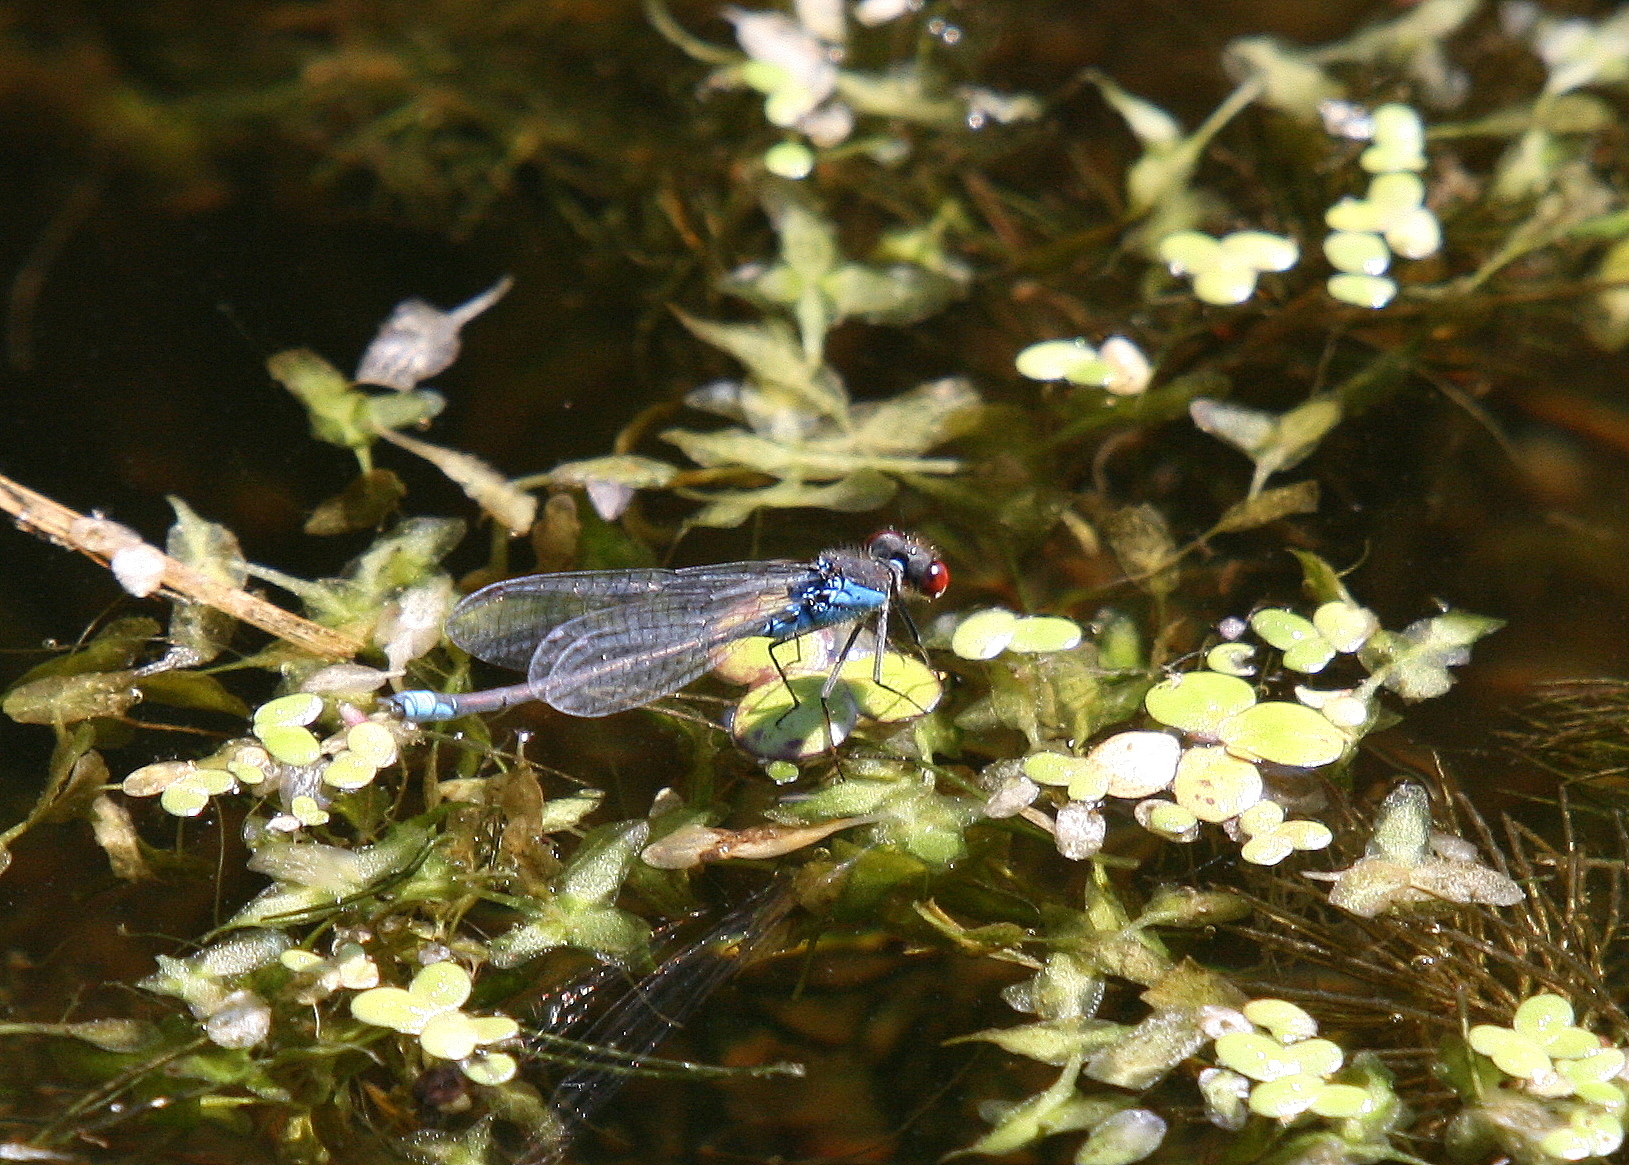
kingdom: Animalia
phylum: Arthropoda
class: Insecta
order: Odonata
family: Coenagrionidae
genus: Erythromma
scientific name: Erythromma viridulum
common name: Small red-eyed damselfly
